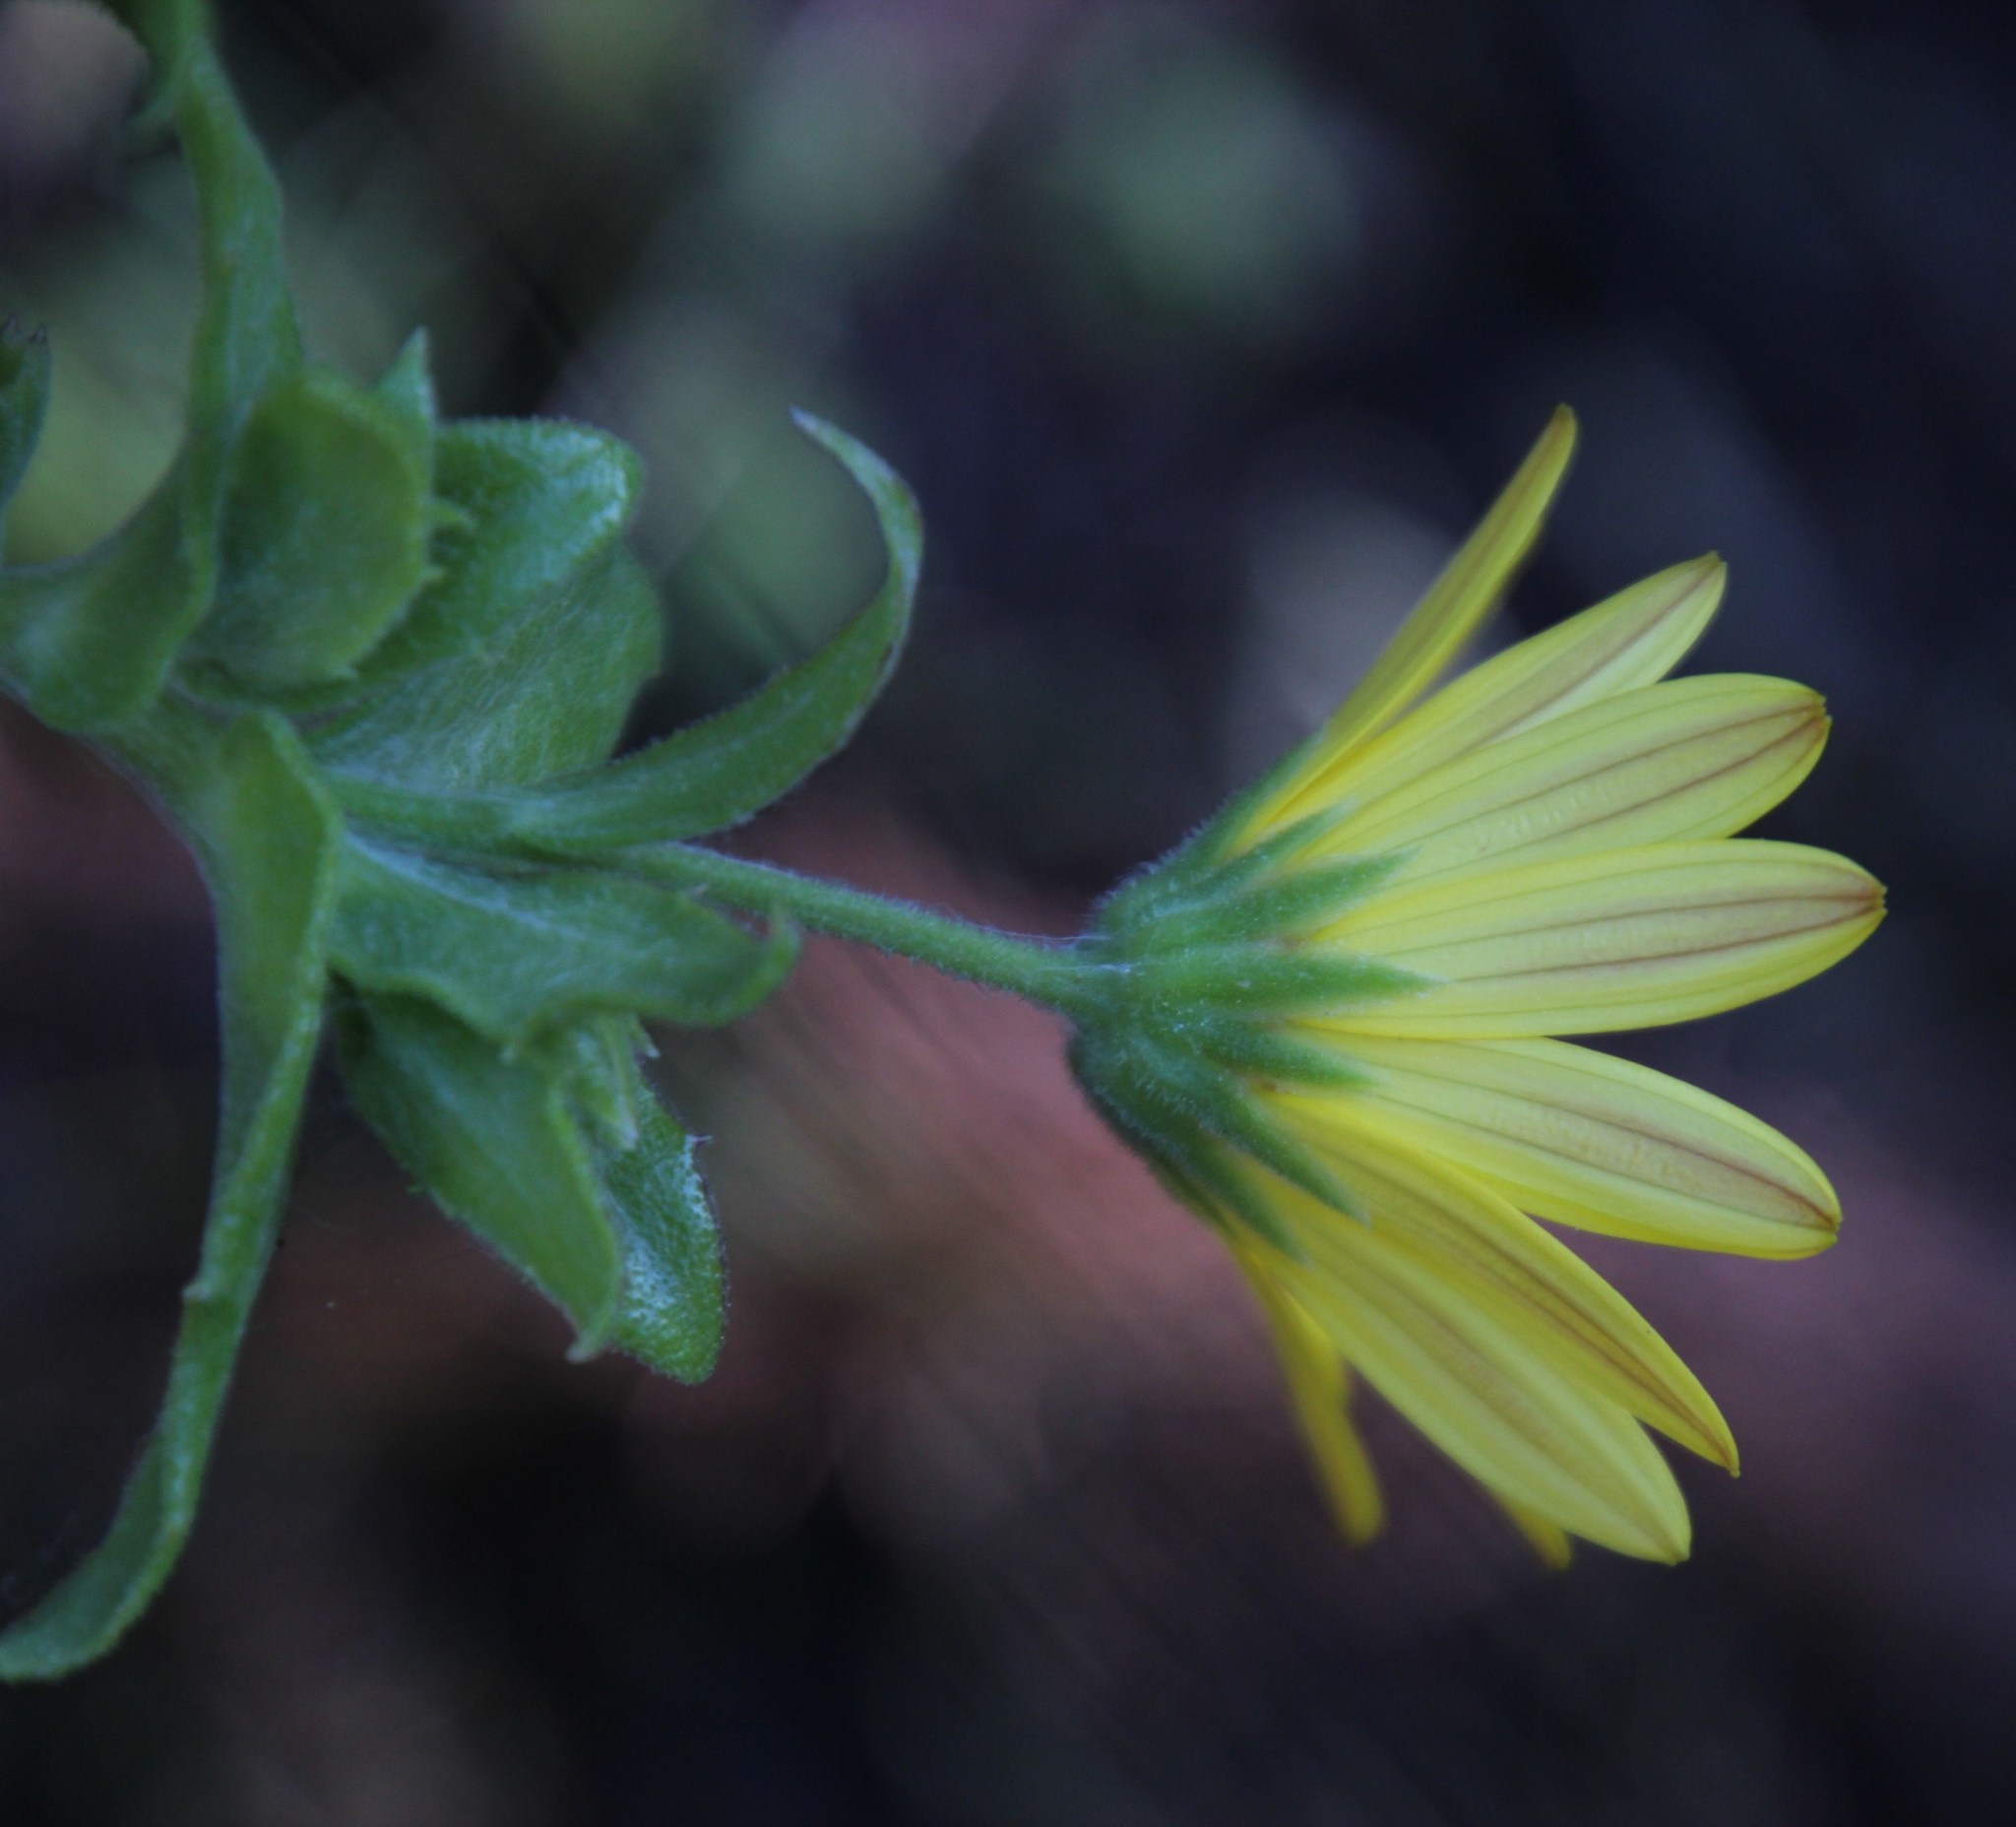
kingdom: Plantae
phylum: Tracheophyta
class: Magnoliopsida
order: Asterales
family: Asteraceae
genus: Osteospermum
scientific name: Osteospermum ilicifolium
